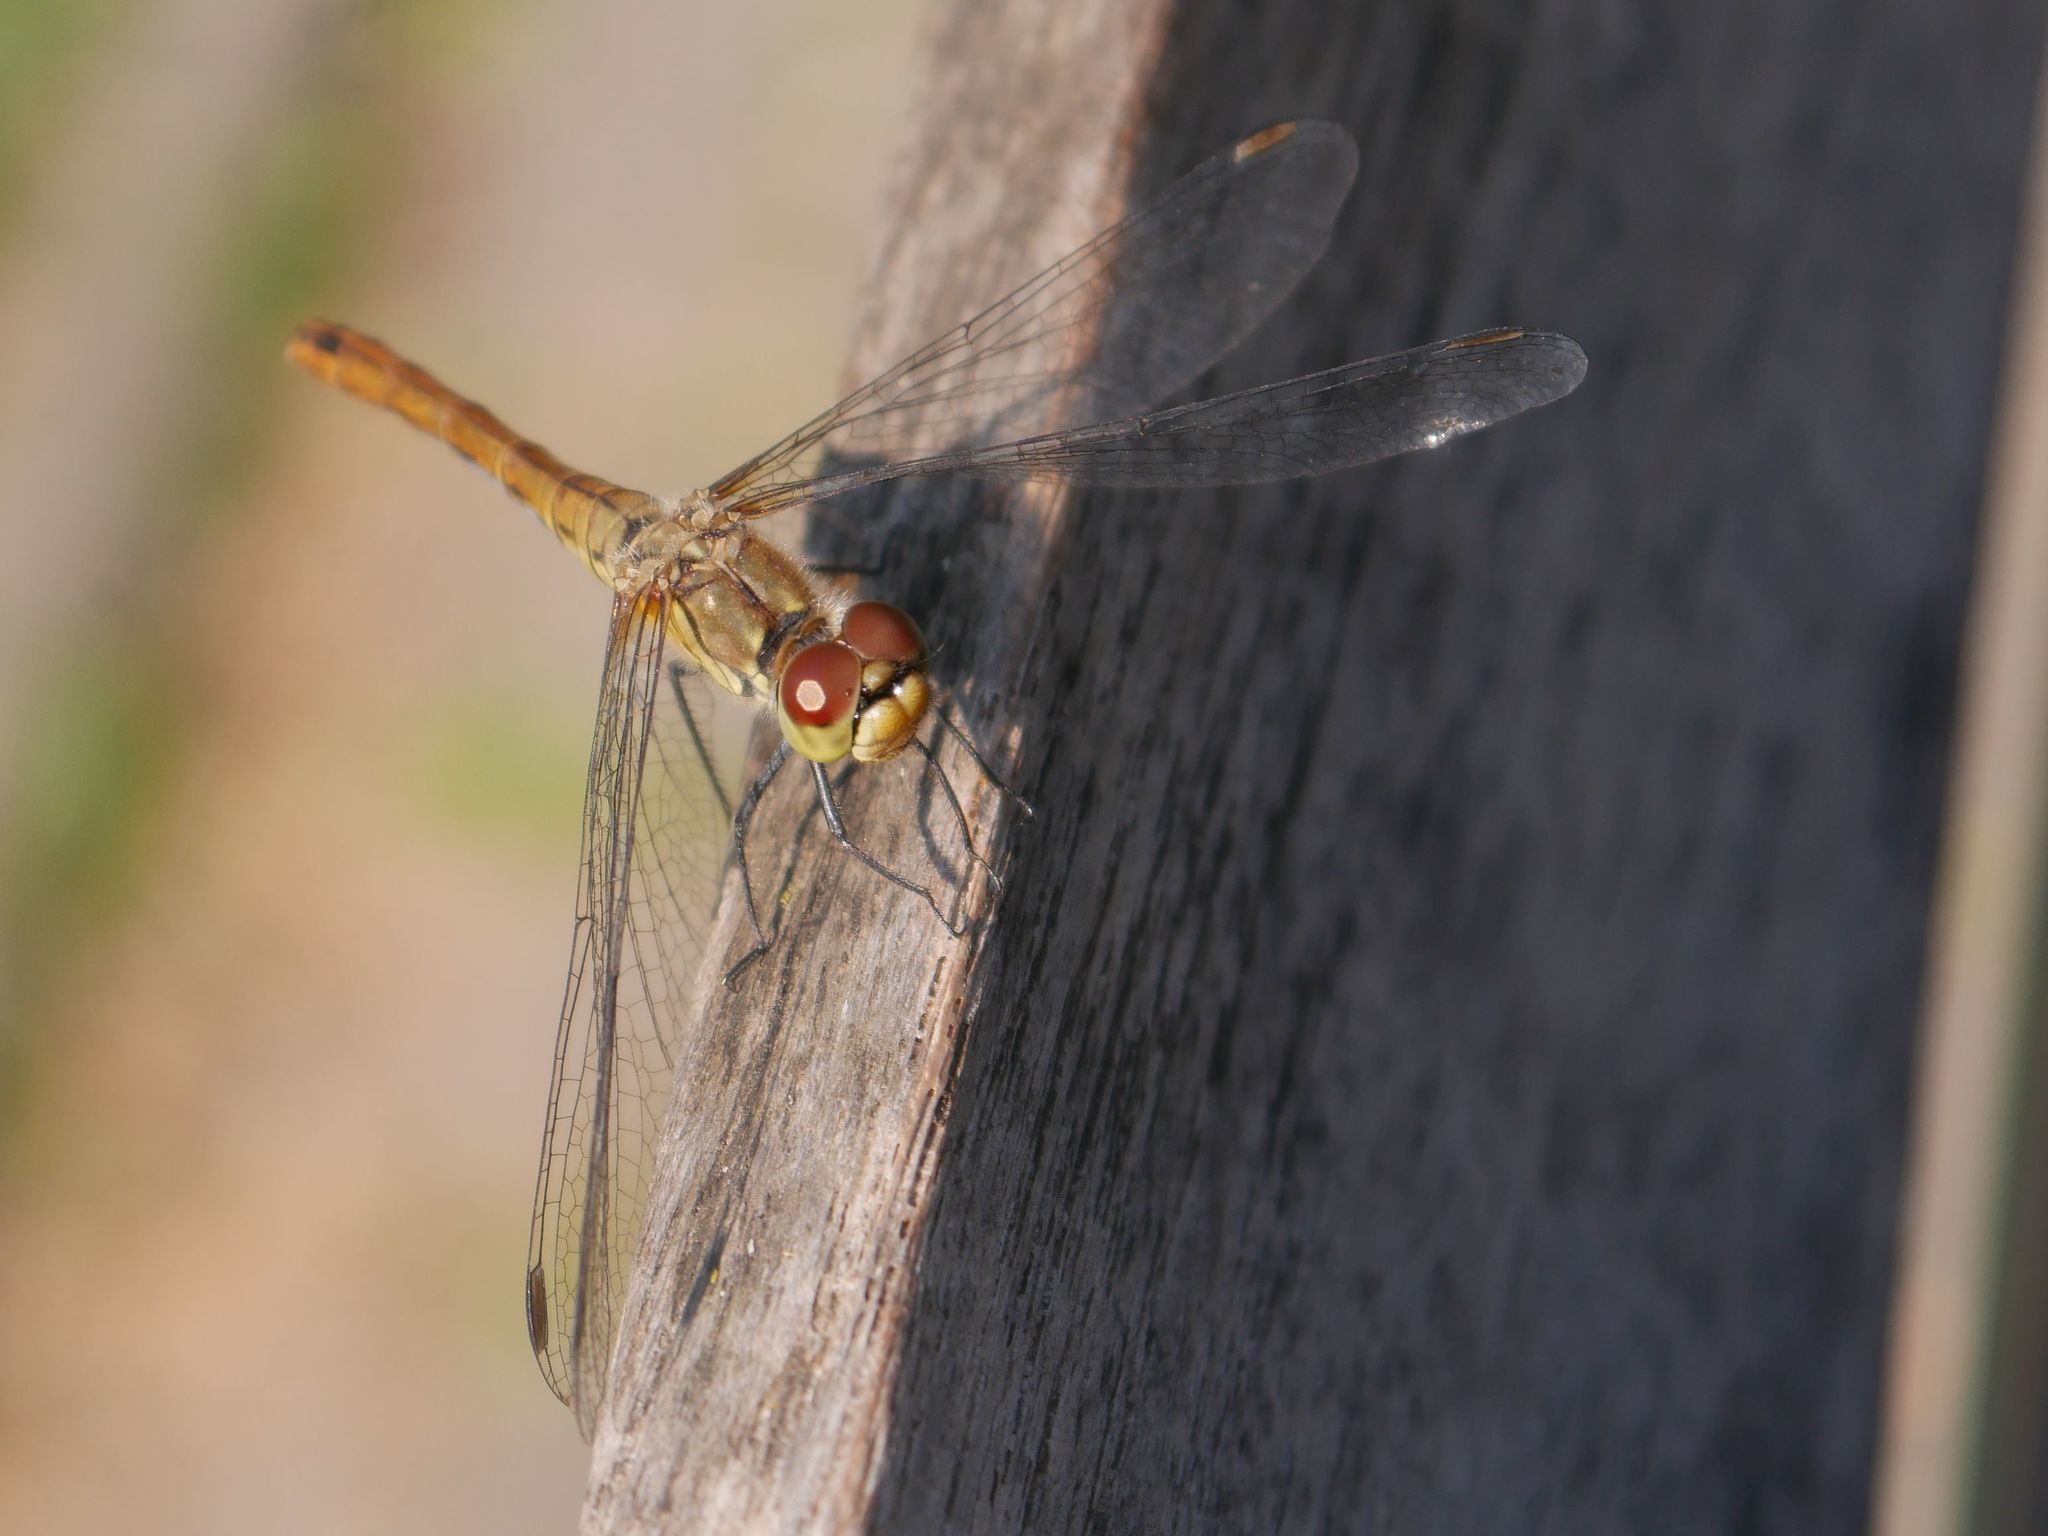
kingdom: Animalia
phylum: Arthropoda
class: Insecta
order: Odonata
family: Libellulidae
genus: Sympetrum
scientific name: Sympetrum sanguineum
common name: Ruddy darter
